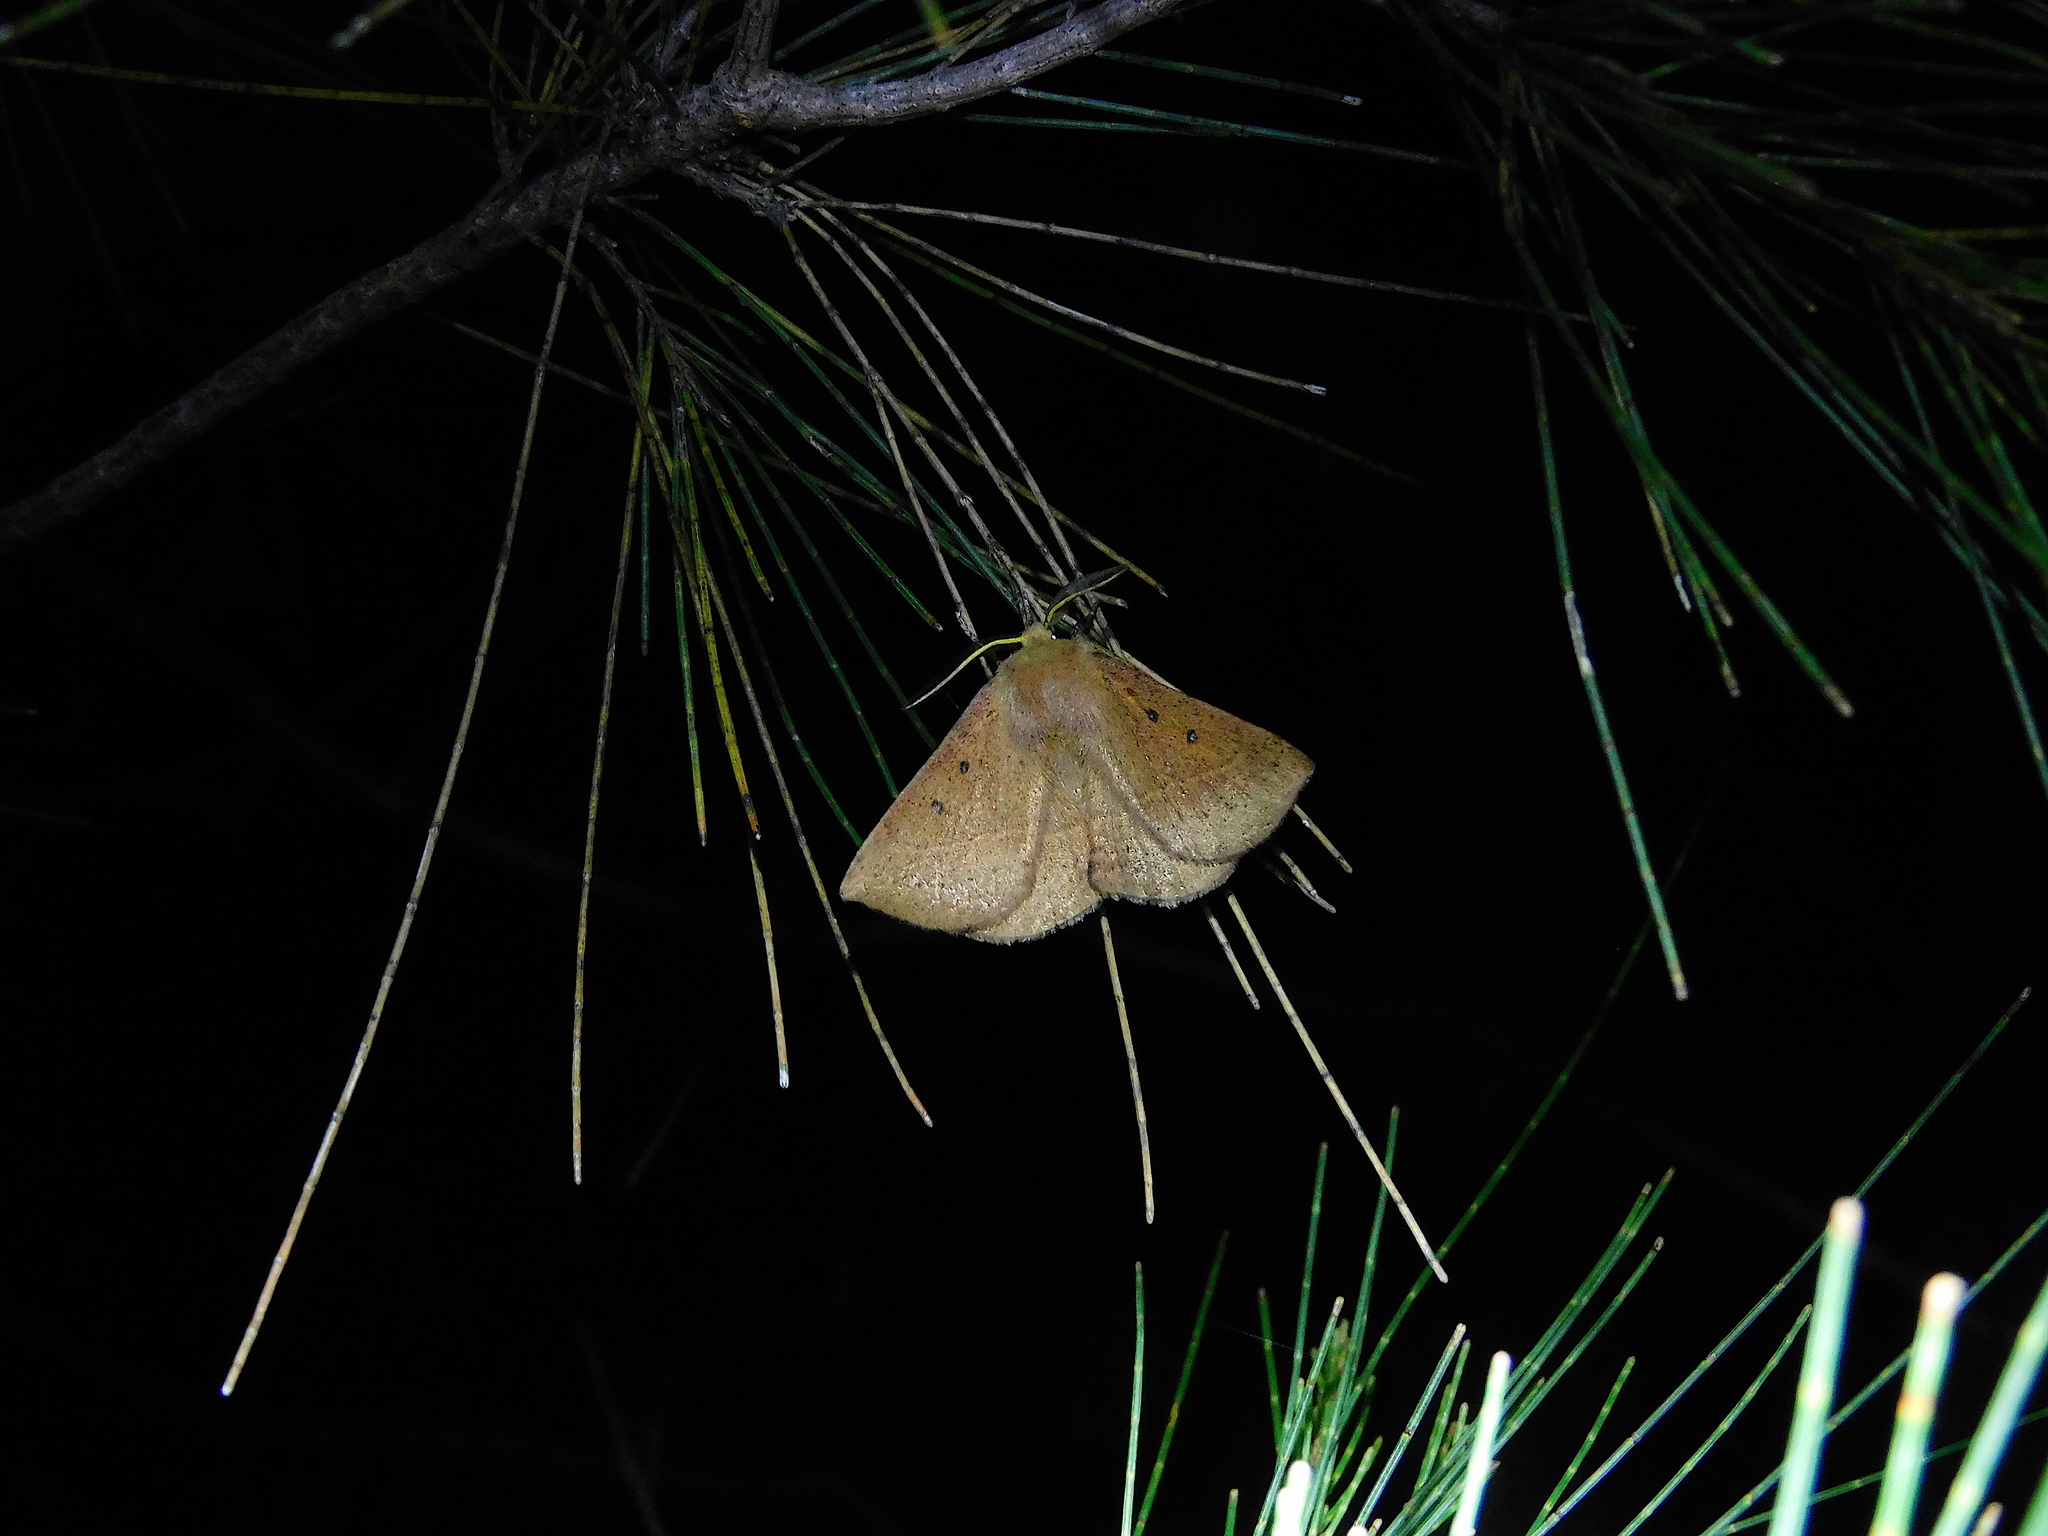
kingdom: Animalia
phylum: Arthropoda
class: Insecta
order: Lepidoptera
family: Anthelidae
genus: Anthela
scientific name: Anthela acuta
